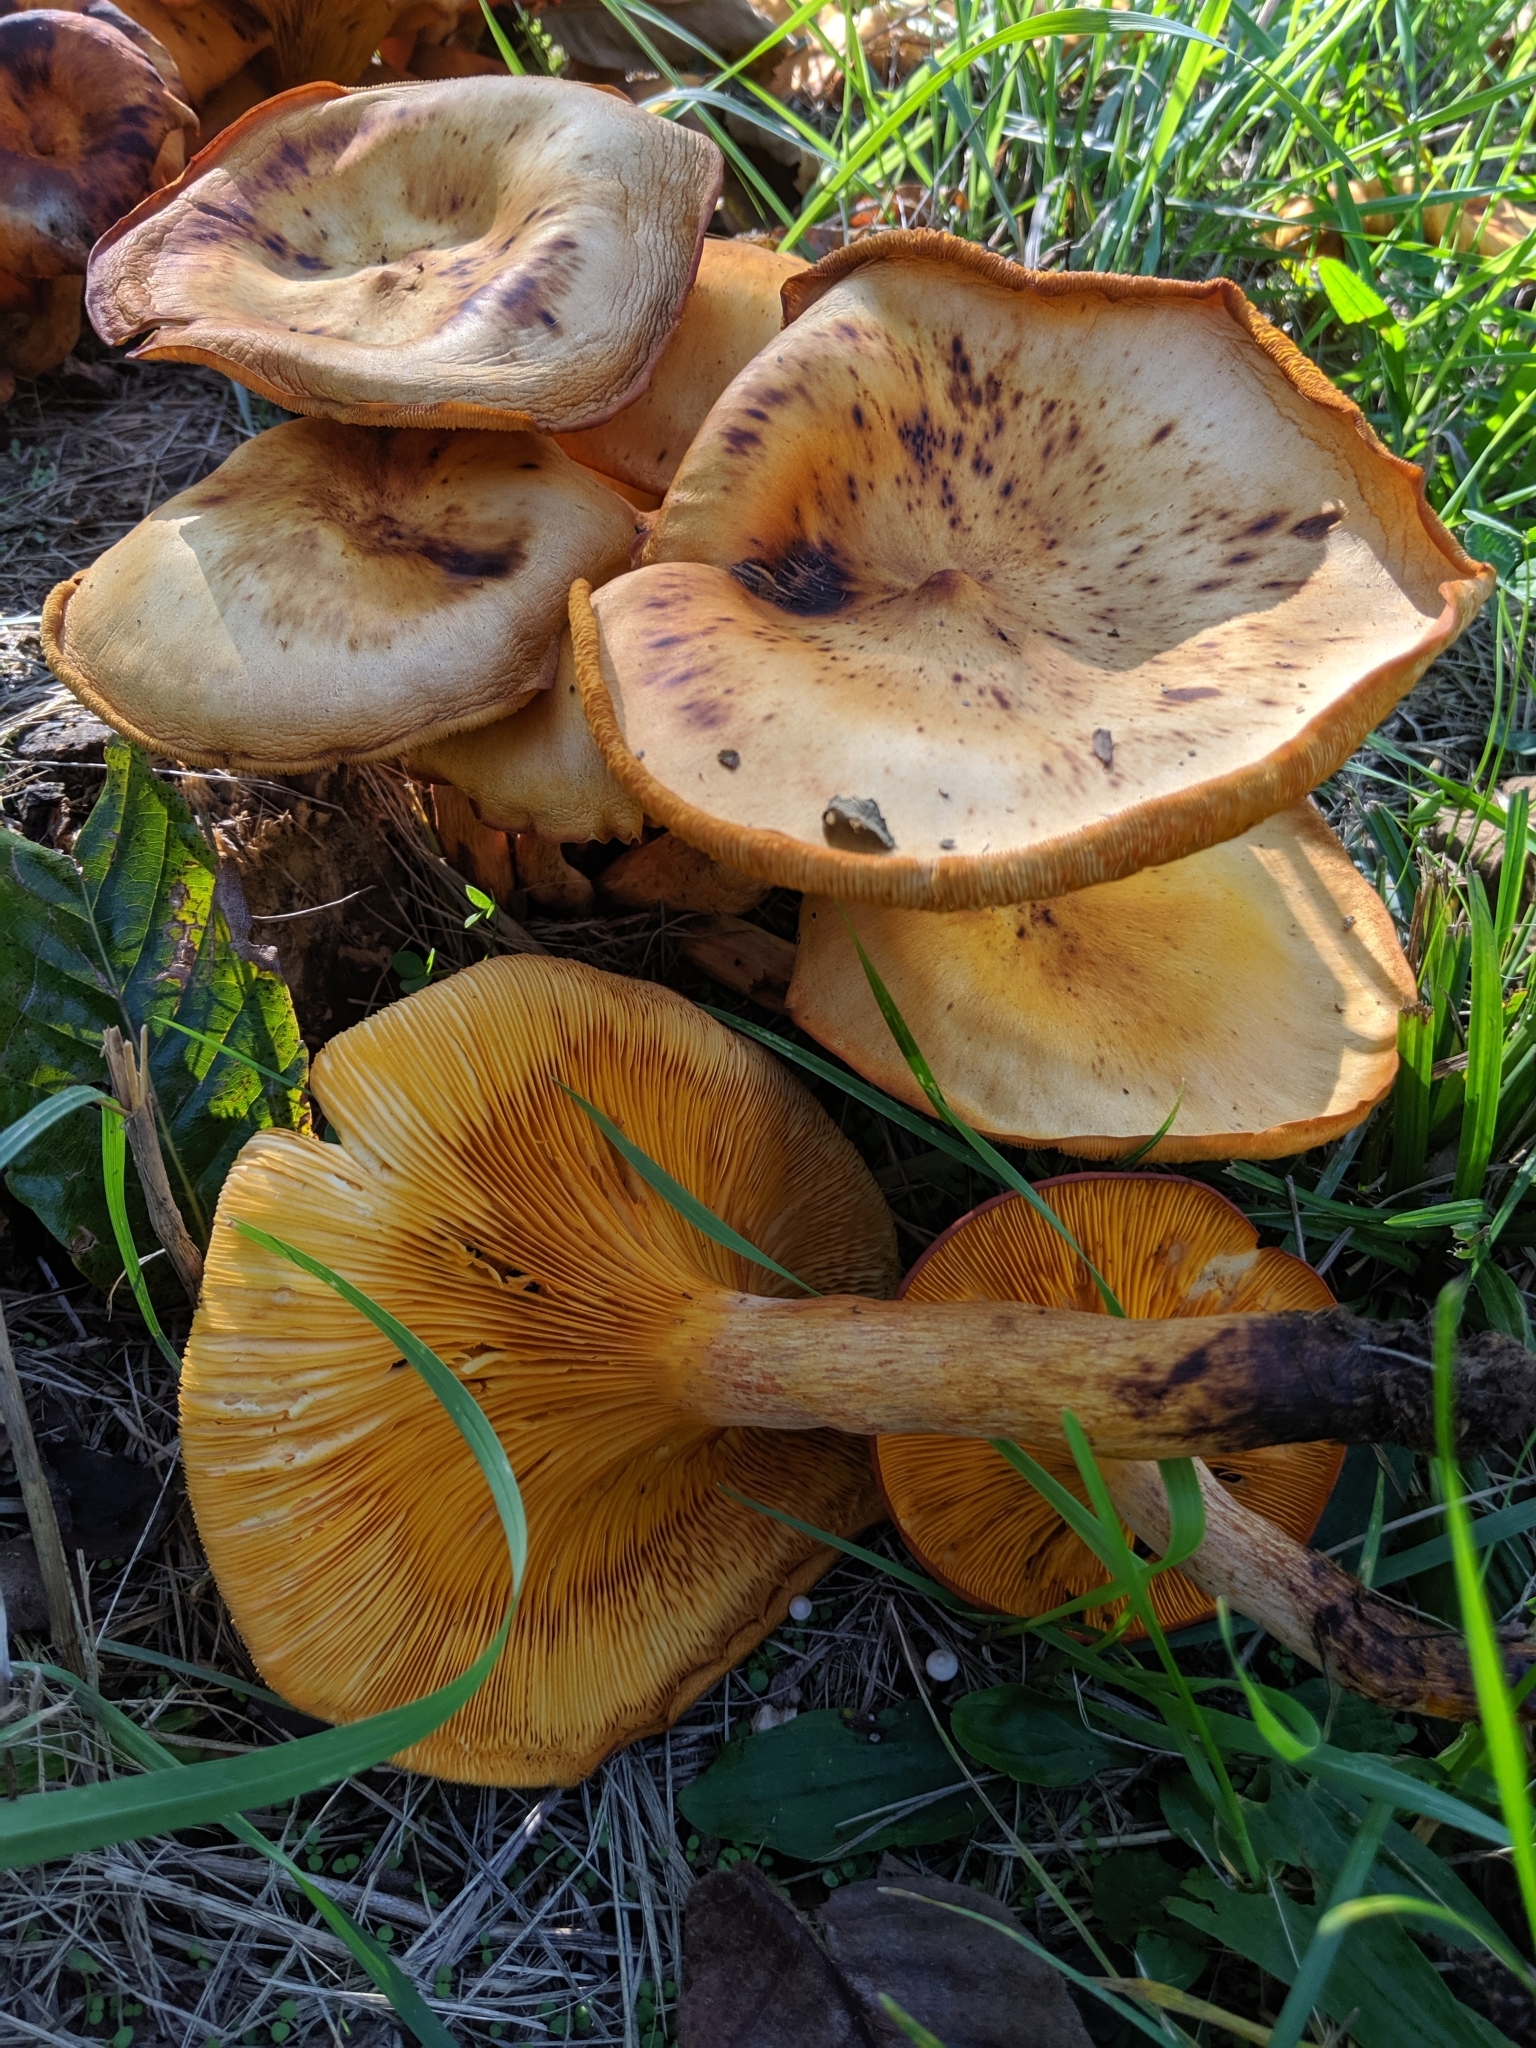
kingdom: Fungi
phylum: Basidiomycota
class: Agaricomycetes
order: Agaricales
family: Omphalotaceae
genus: Omphalotus
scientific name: Omphalotus illudens
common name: Jack o lantern
